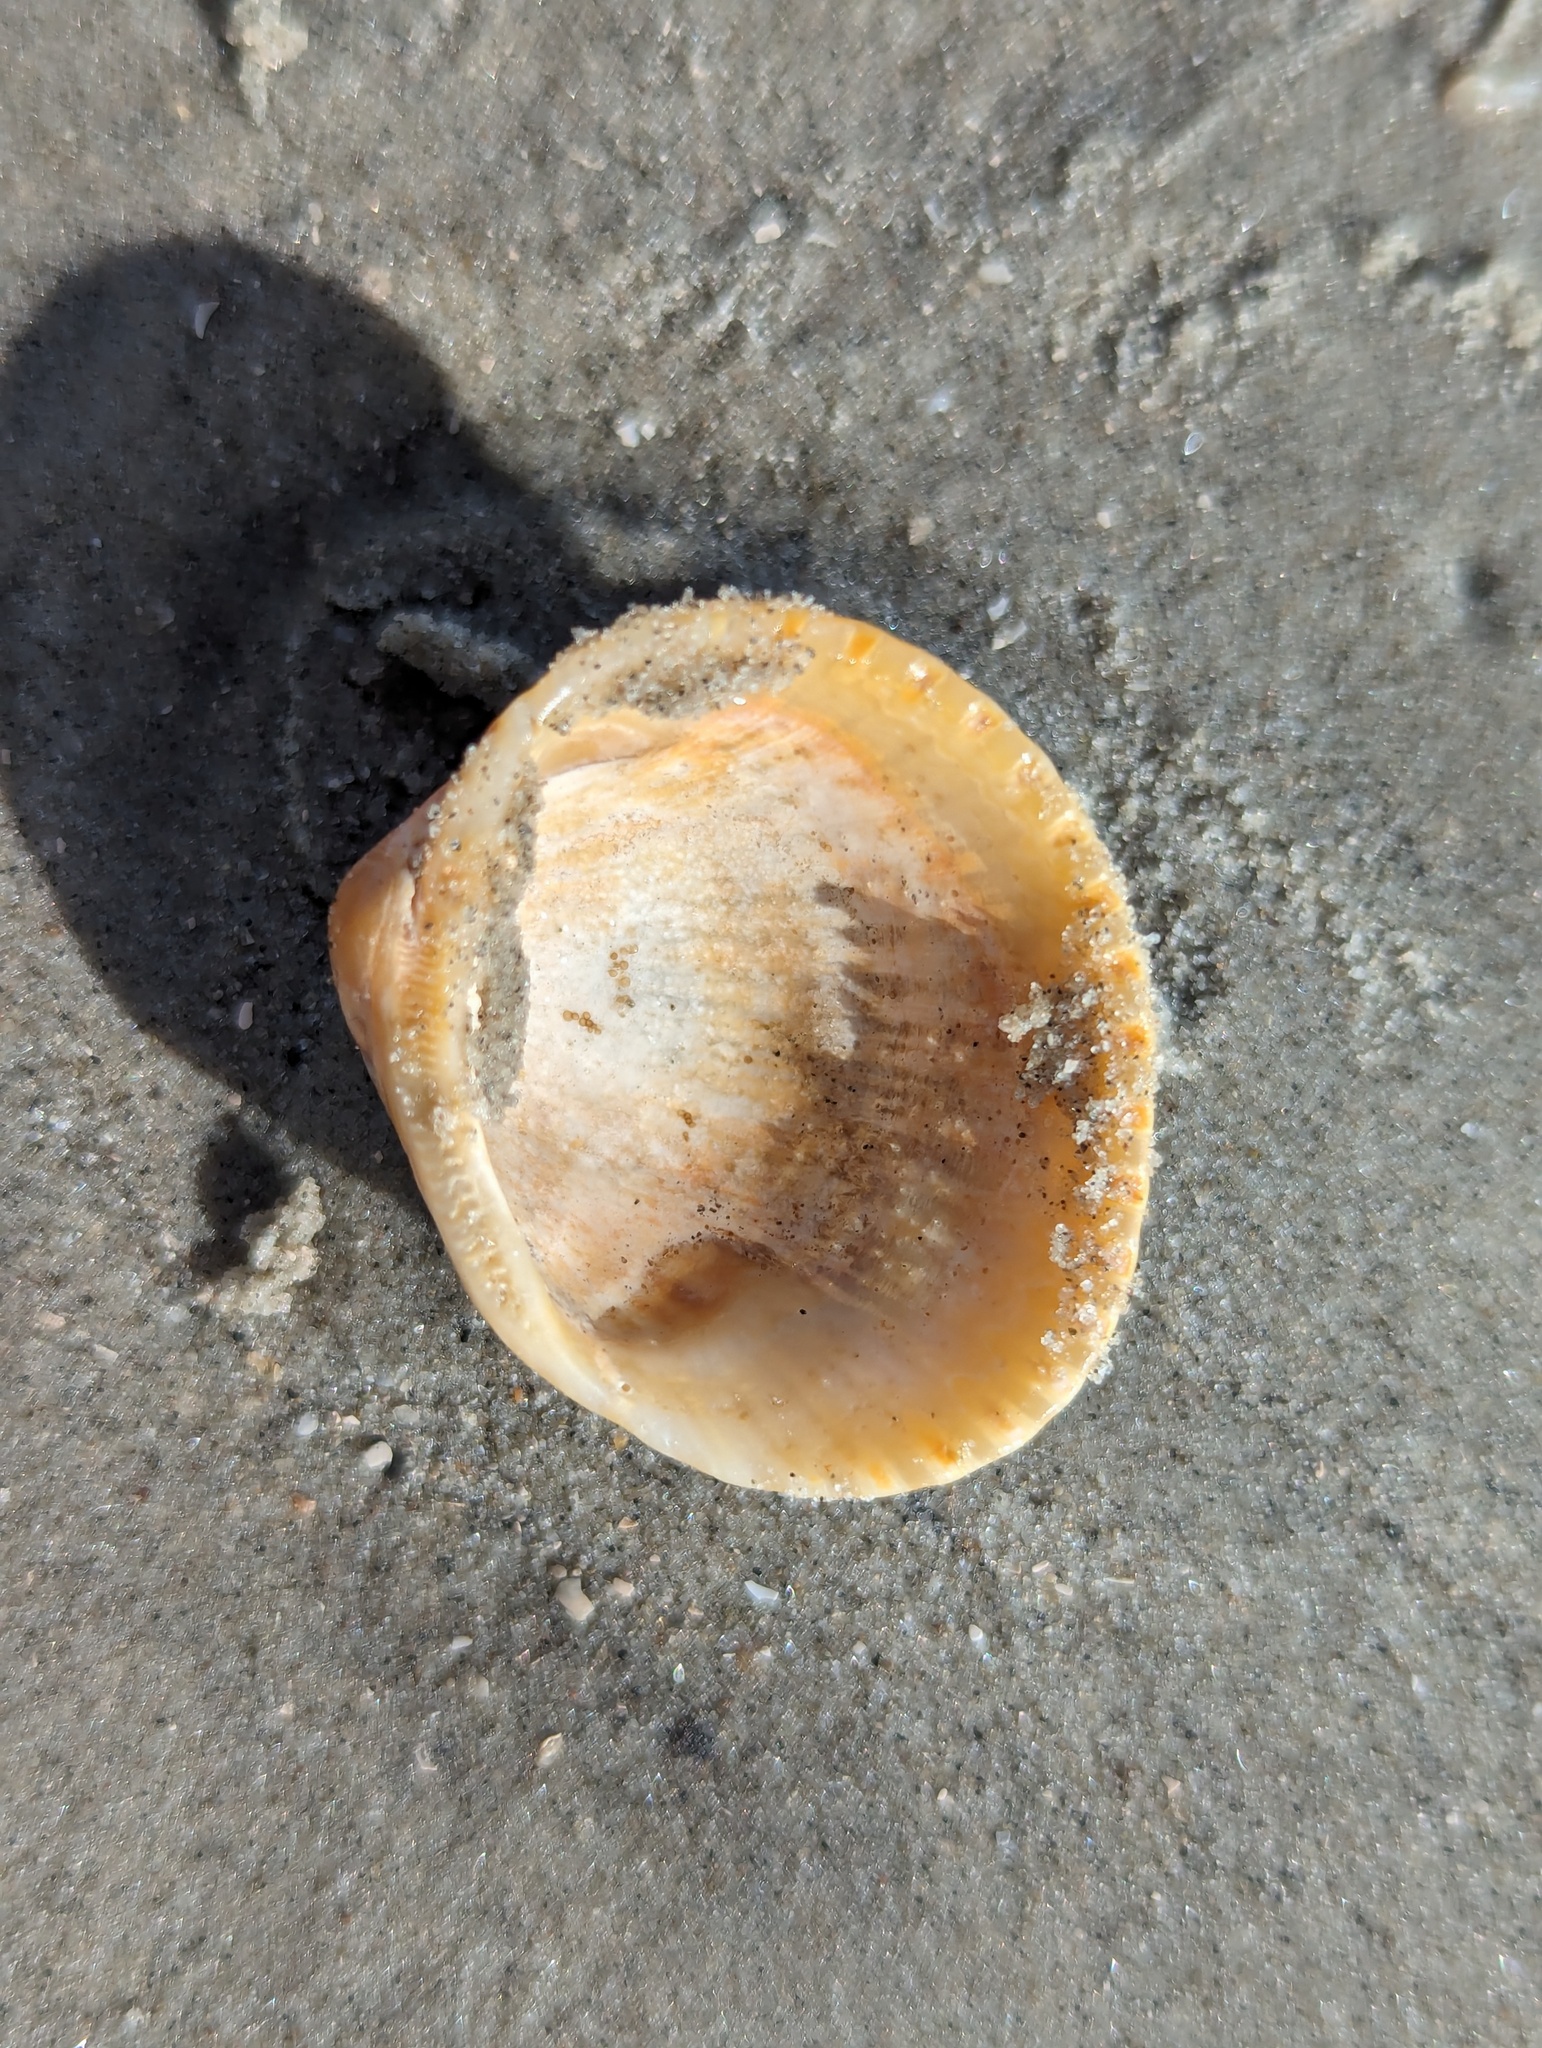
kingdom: Animalia
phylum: Mollusca
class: Bivalvia
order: Arcida
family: Arcidae
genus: Lunarca
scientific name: Lunarca ovalis
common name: Blood ark
